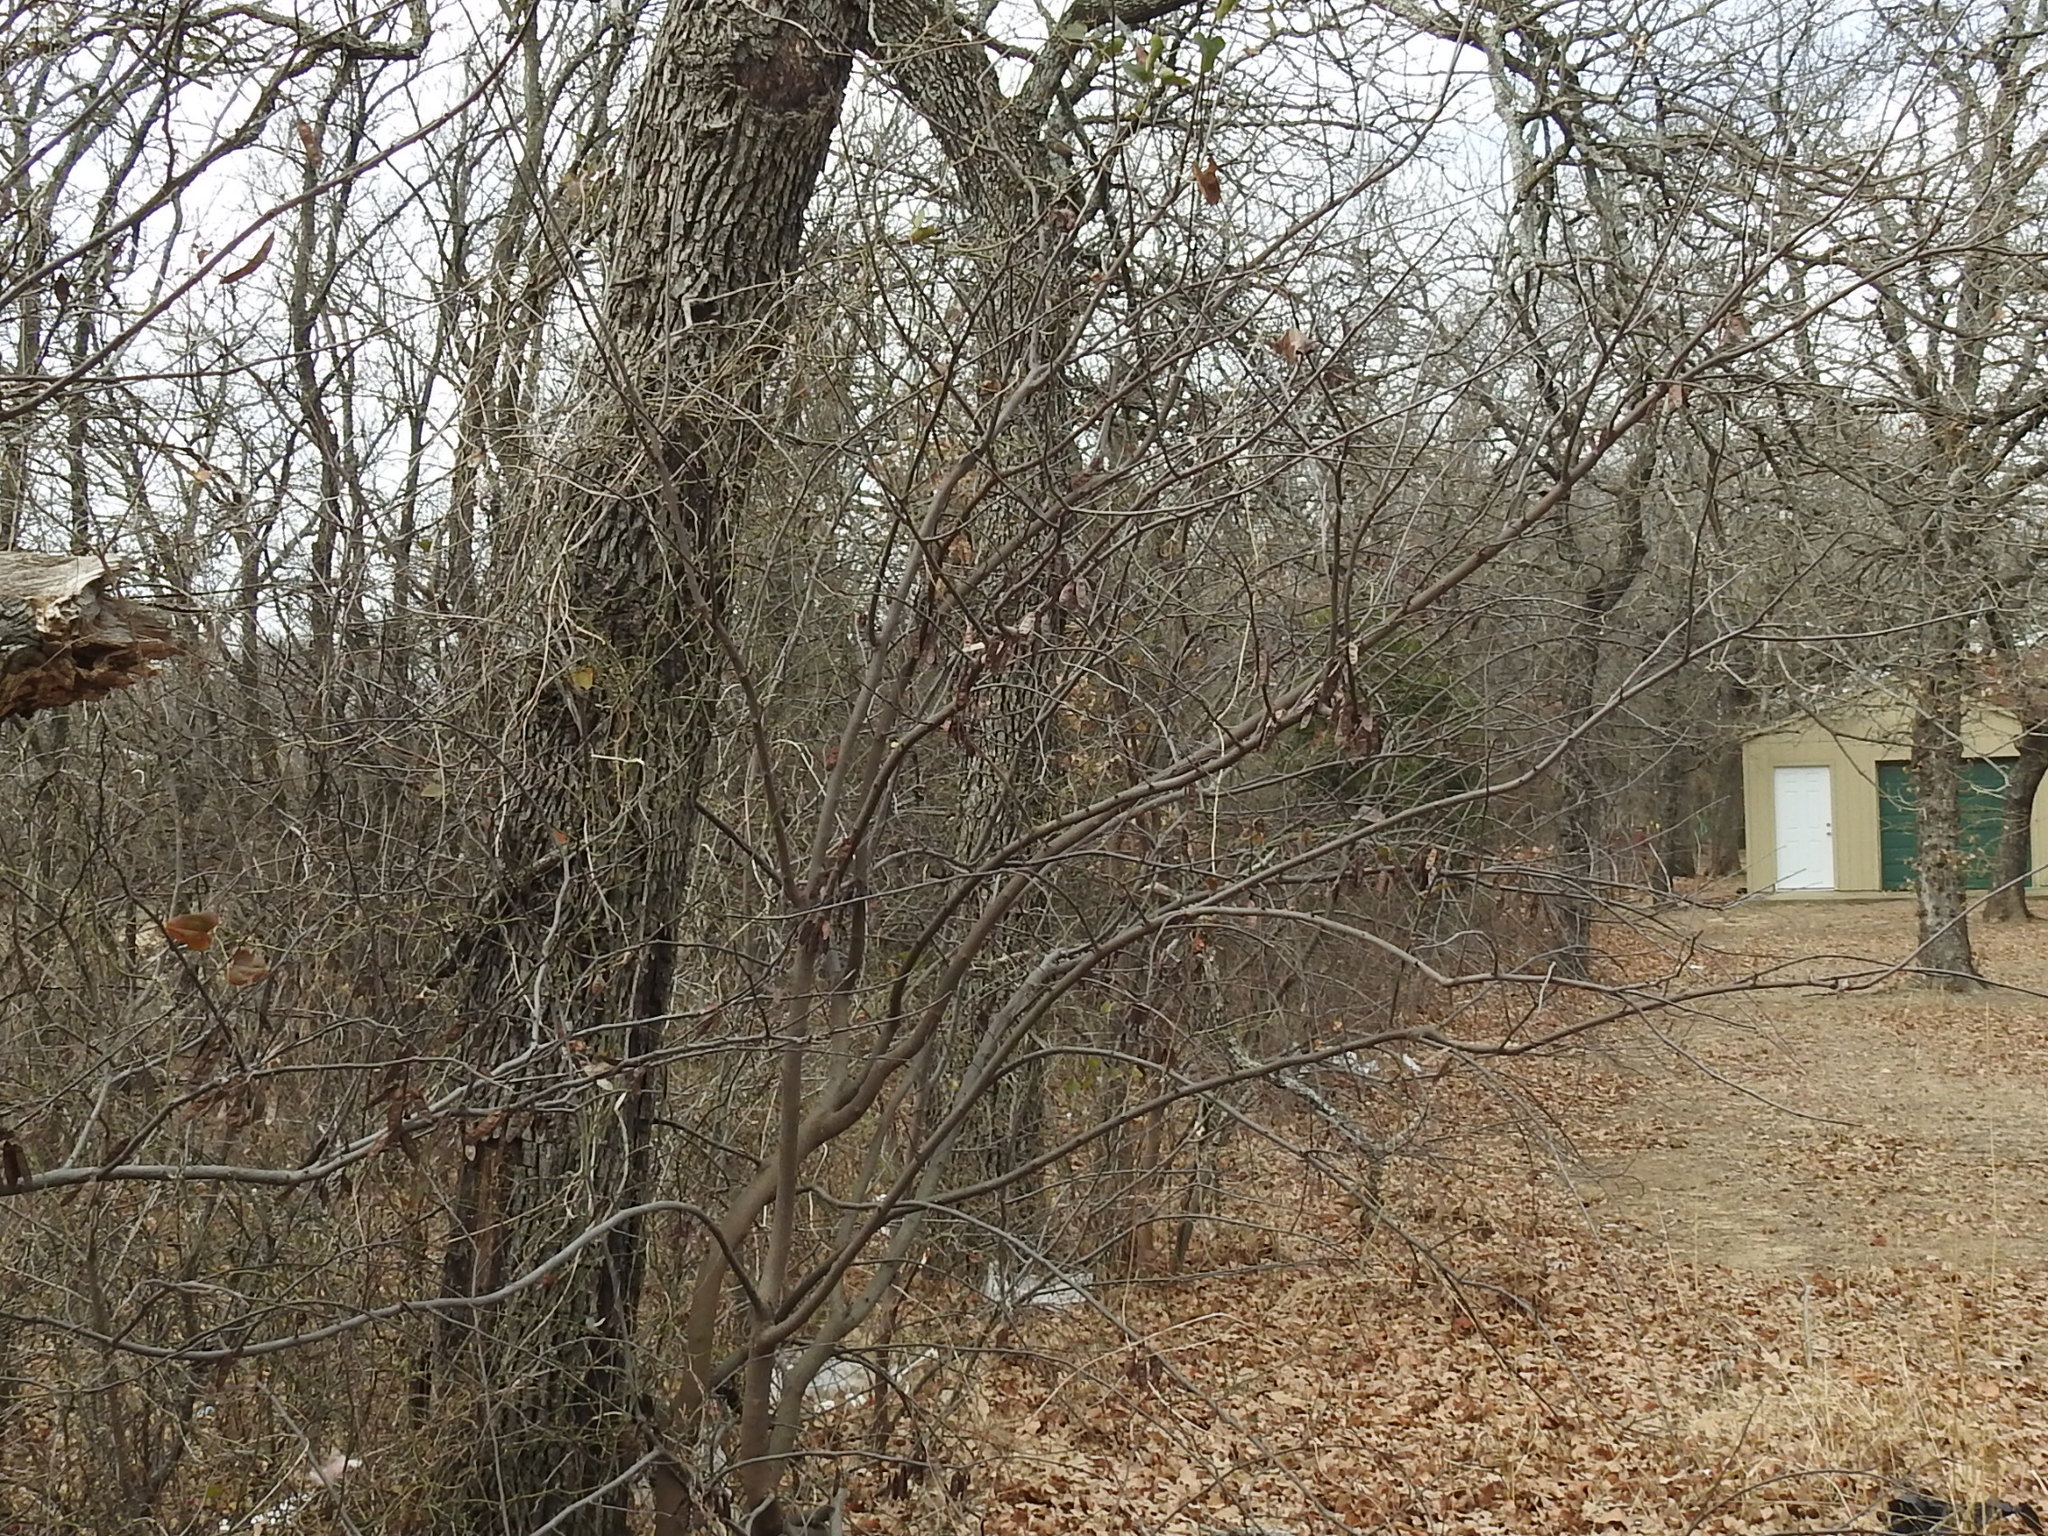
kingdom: Plantae
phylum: Tracheophyta
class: Magnoliopsida
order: Fabales
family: Fabaceae
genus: Cercis
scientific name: Cercis canadensis
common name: Eastern redbud
